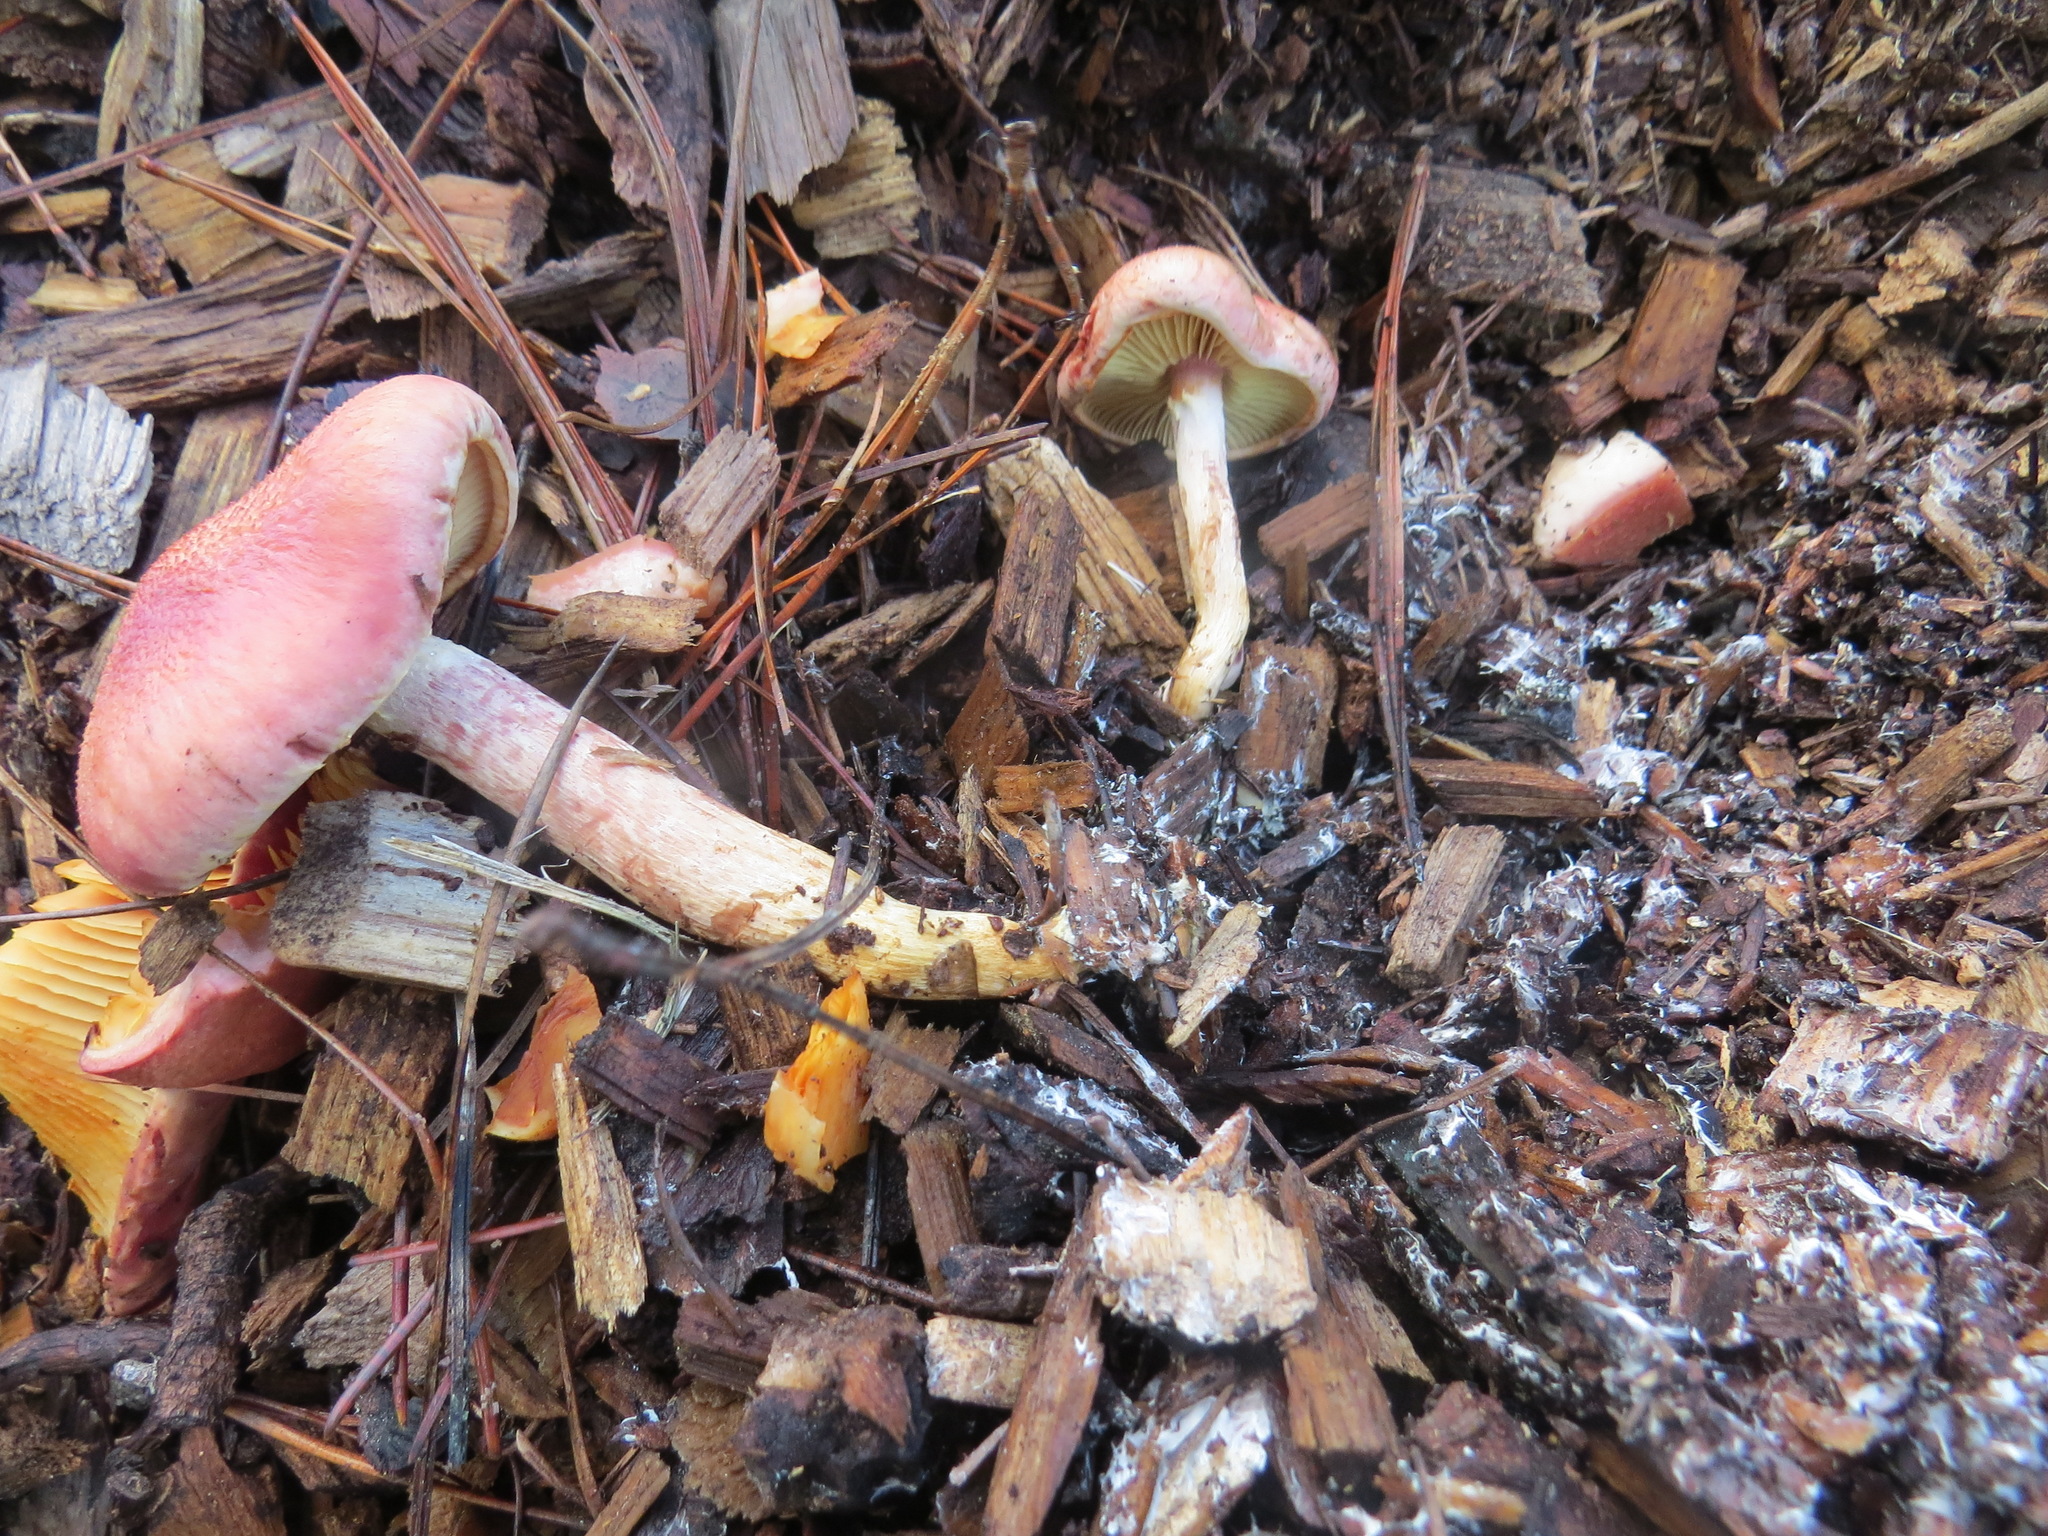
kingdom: Fungi
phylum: Basidiomycota
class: Agaricomycetes
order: Agaricales
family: Hymenogastraceae
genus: Gymnopilus
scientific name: Gymnopilus luteofolius
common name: Yellow-gilled gymnopilus
